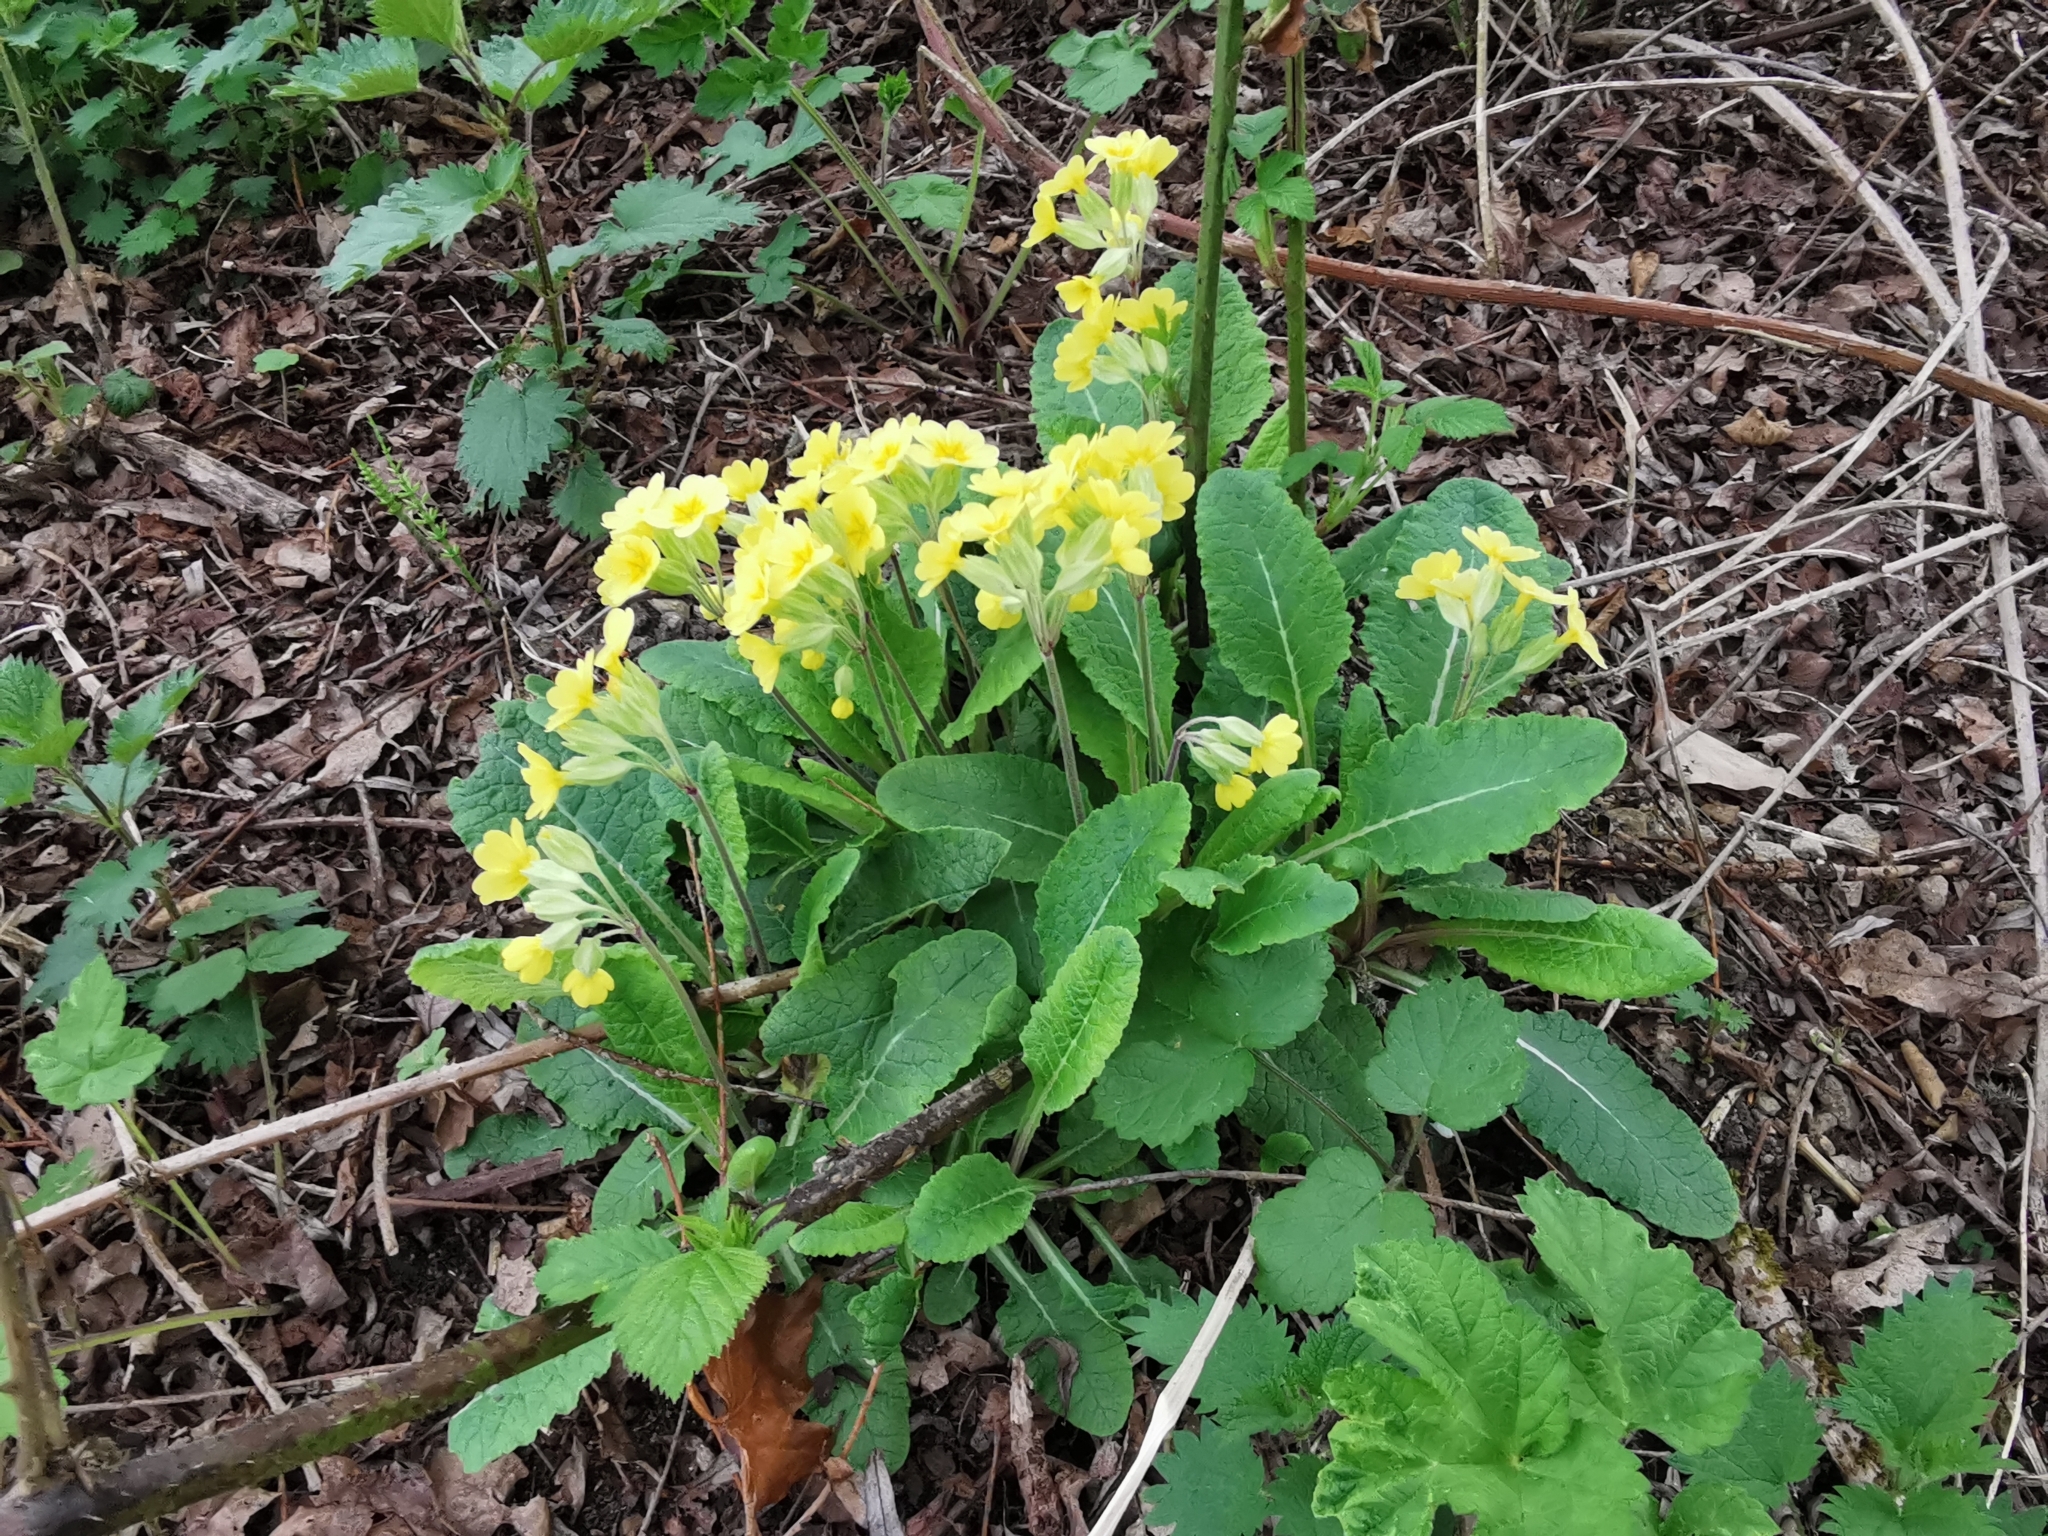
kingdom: Plantae
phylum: Tracheophyta
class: Magnoliopsida
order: Ericales
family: Primulaceae
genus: Primula
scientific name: Primula polyantha
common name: False oxlip
